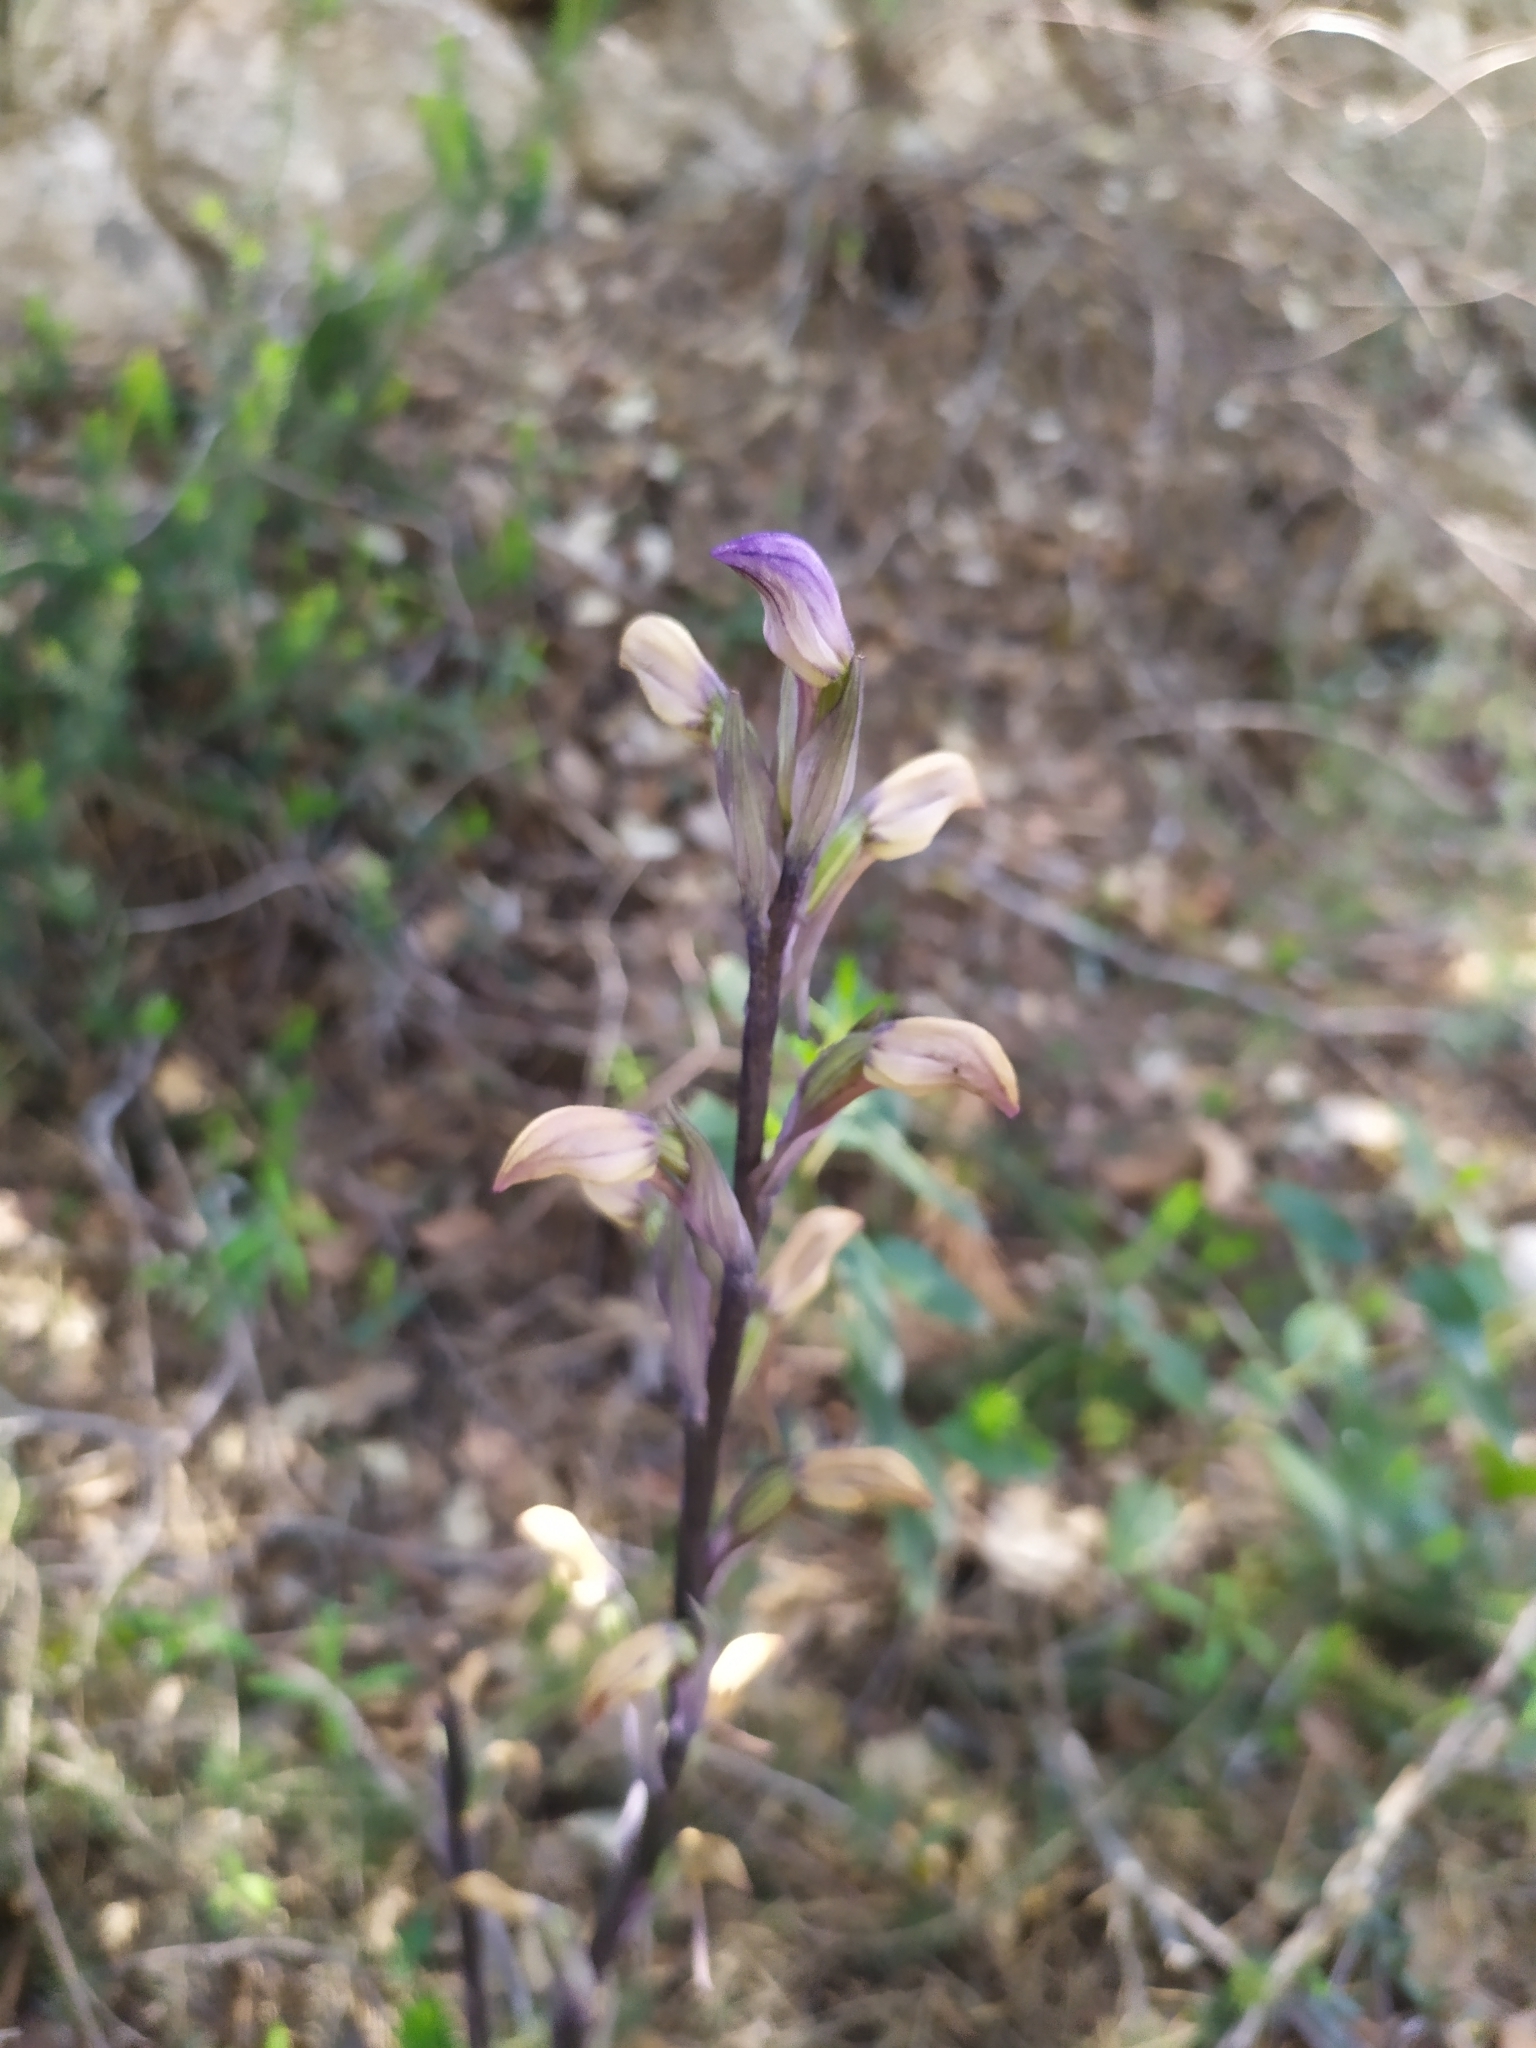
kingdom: Plantae
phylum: Tracheophyta
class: Liliopsida
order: Asparagales
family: Orchidaceae
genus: Limodorum
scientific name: Limodorum abortivum
